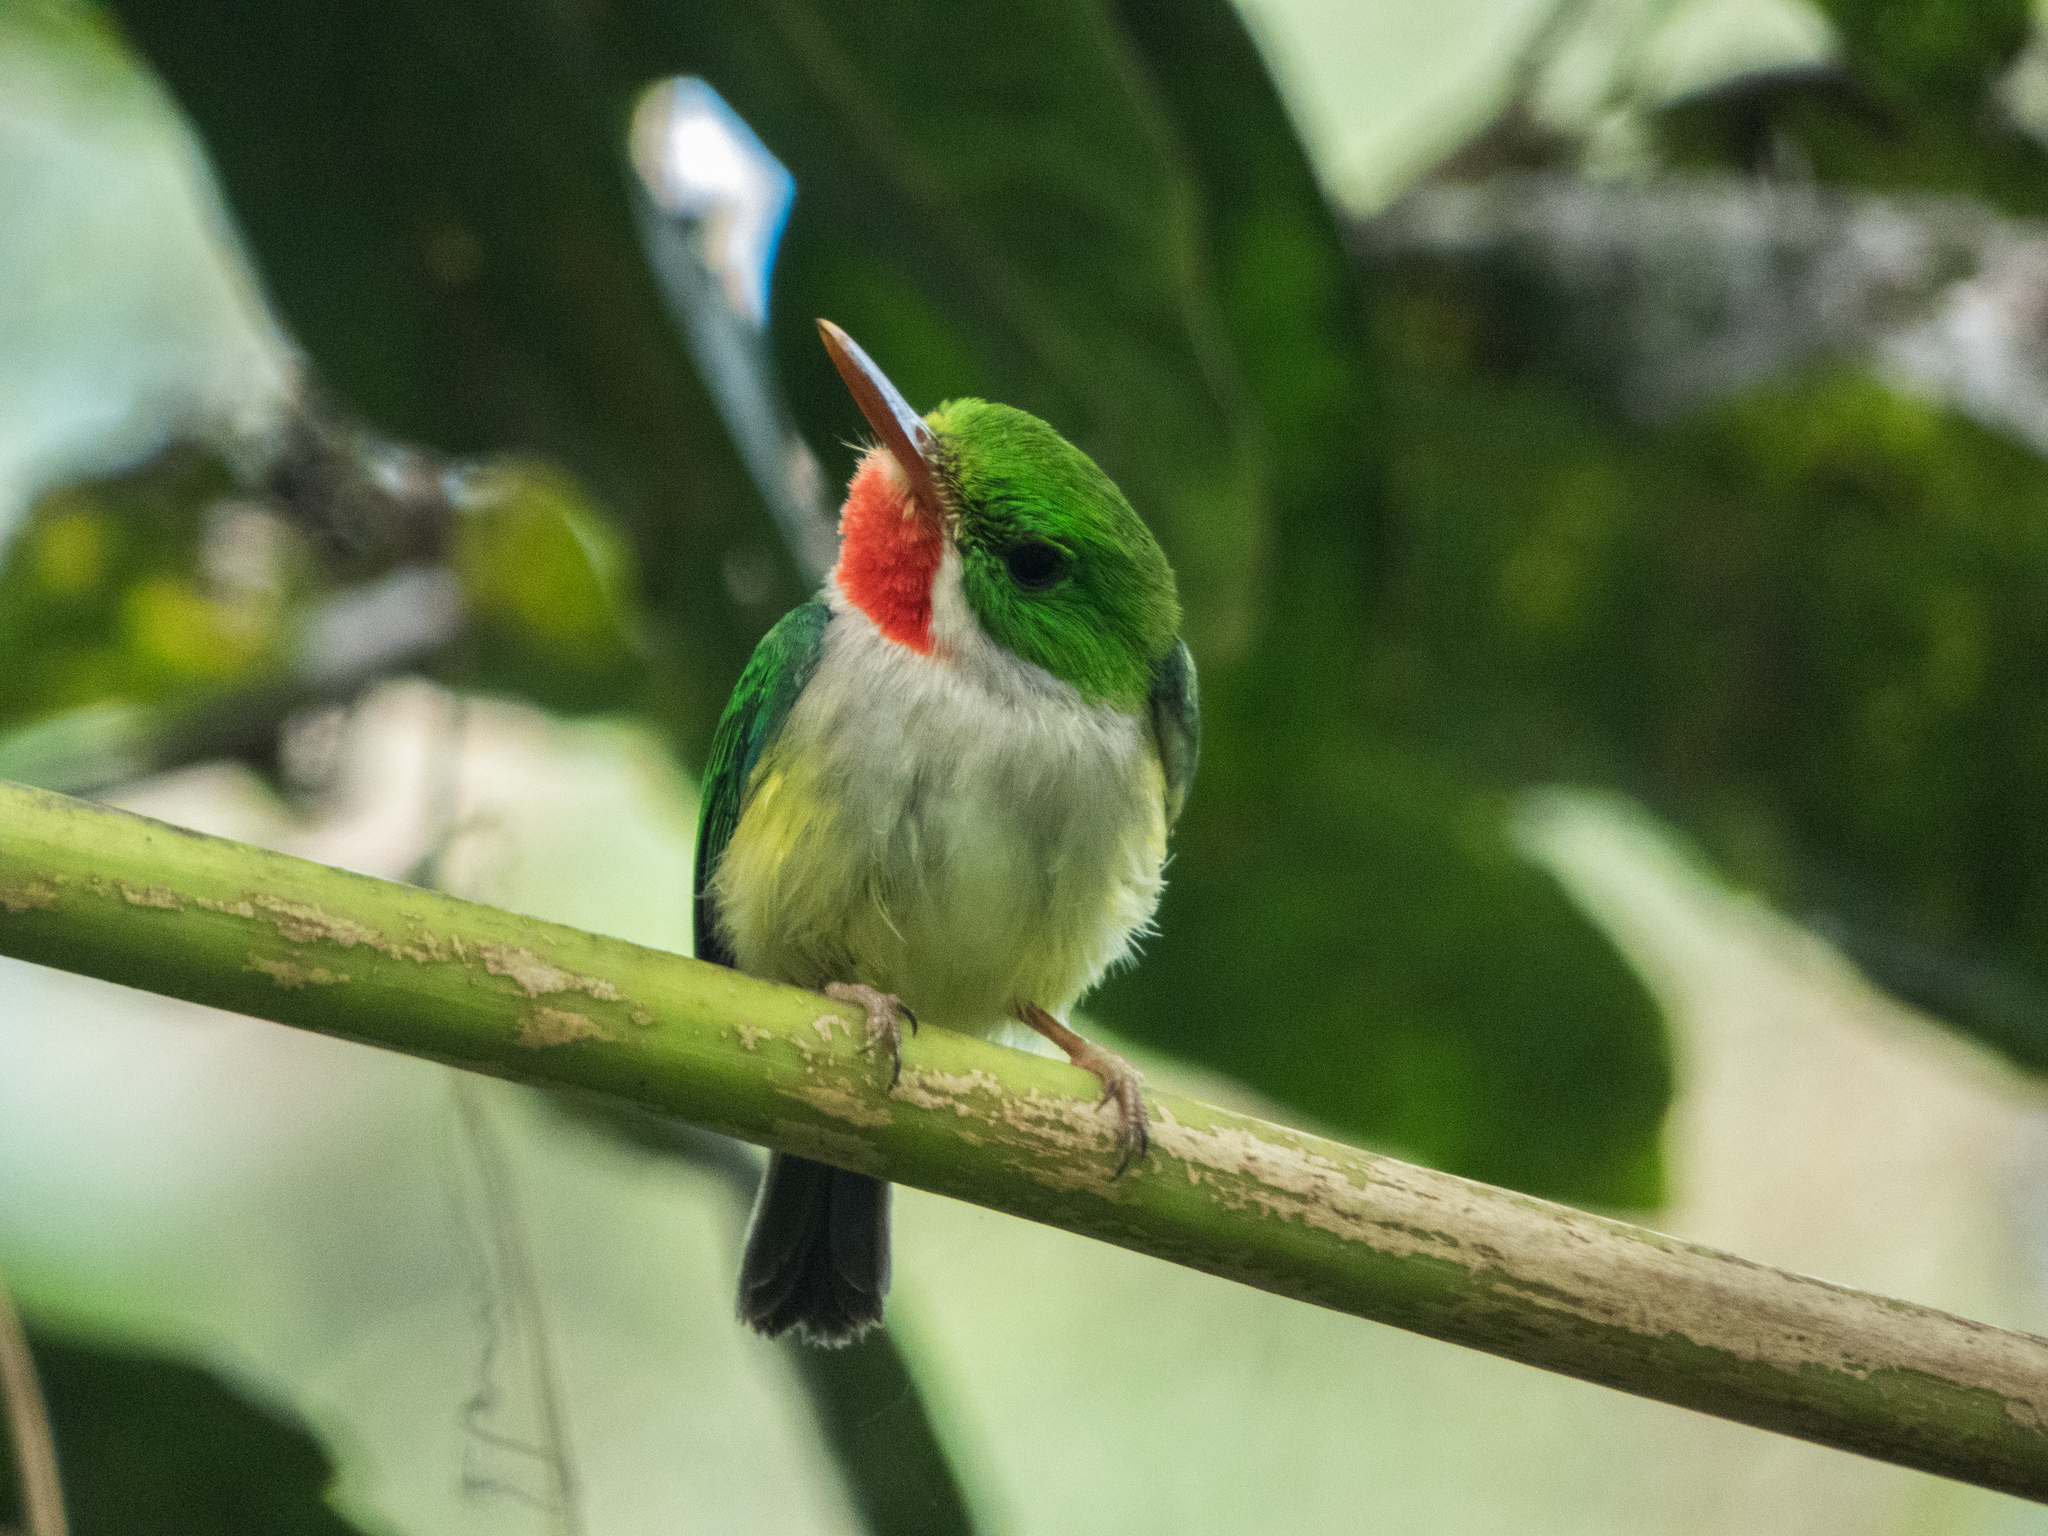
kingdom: Animalia
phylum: Chordata
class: Aves
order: Coraciiformes
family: Todidae
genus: Todus
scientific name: Todus mexicanus
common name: Puerto rican tody
